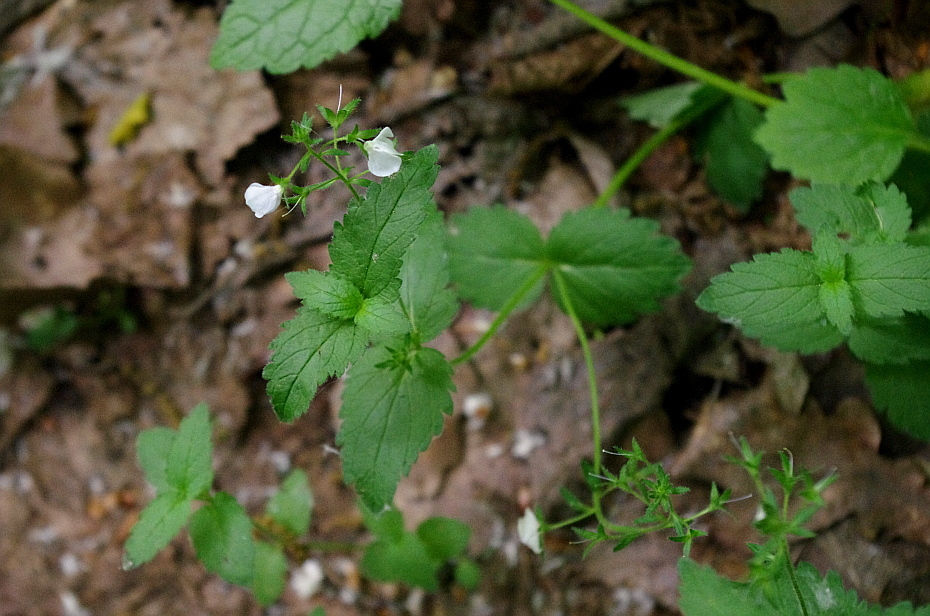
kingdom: Plantae
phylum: Tracheophyta
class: Magnoliopsida
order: Lamiales
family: Plantaginaceae
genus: Veronica
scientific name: Veronica chamaedrys
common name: Germander speedwell
